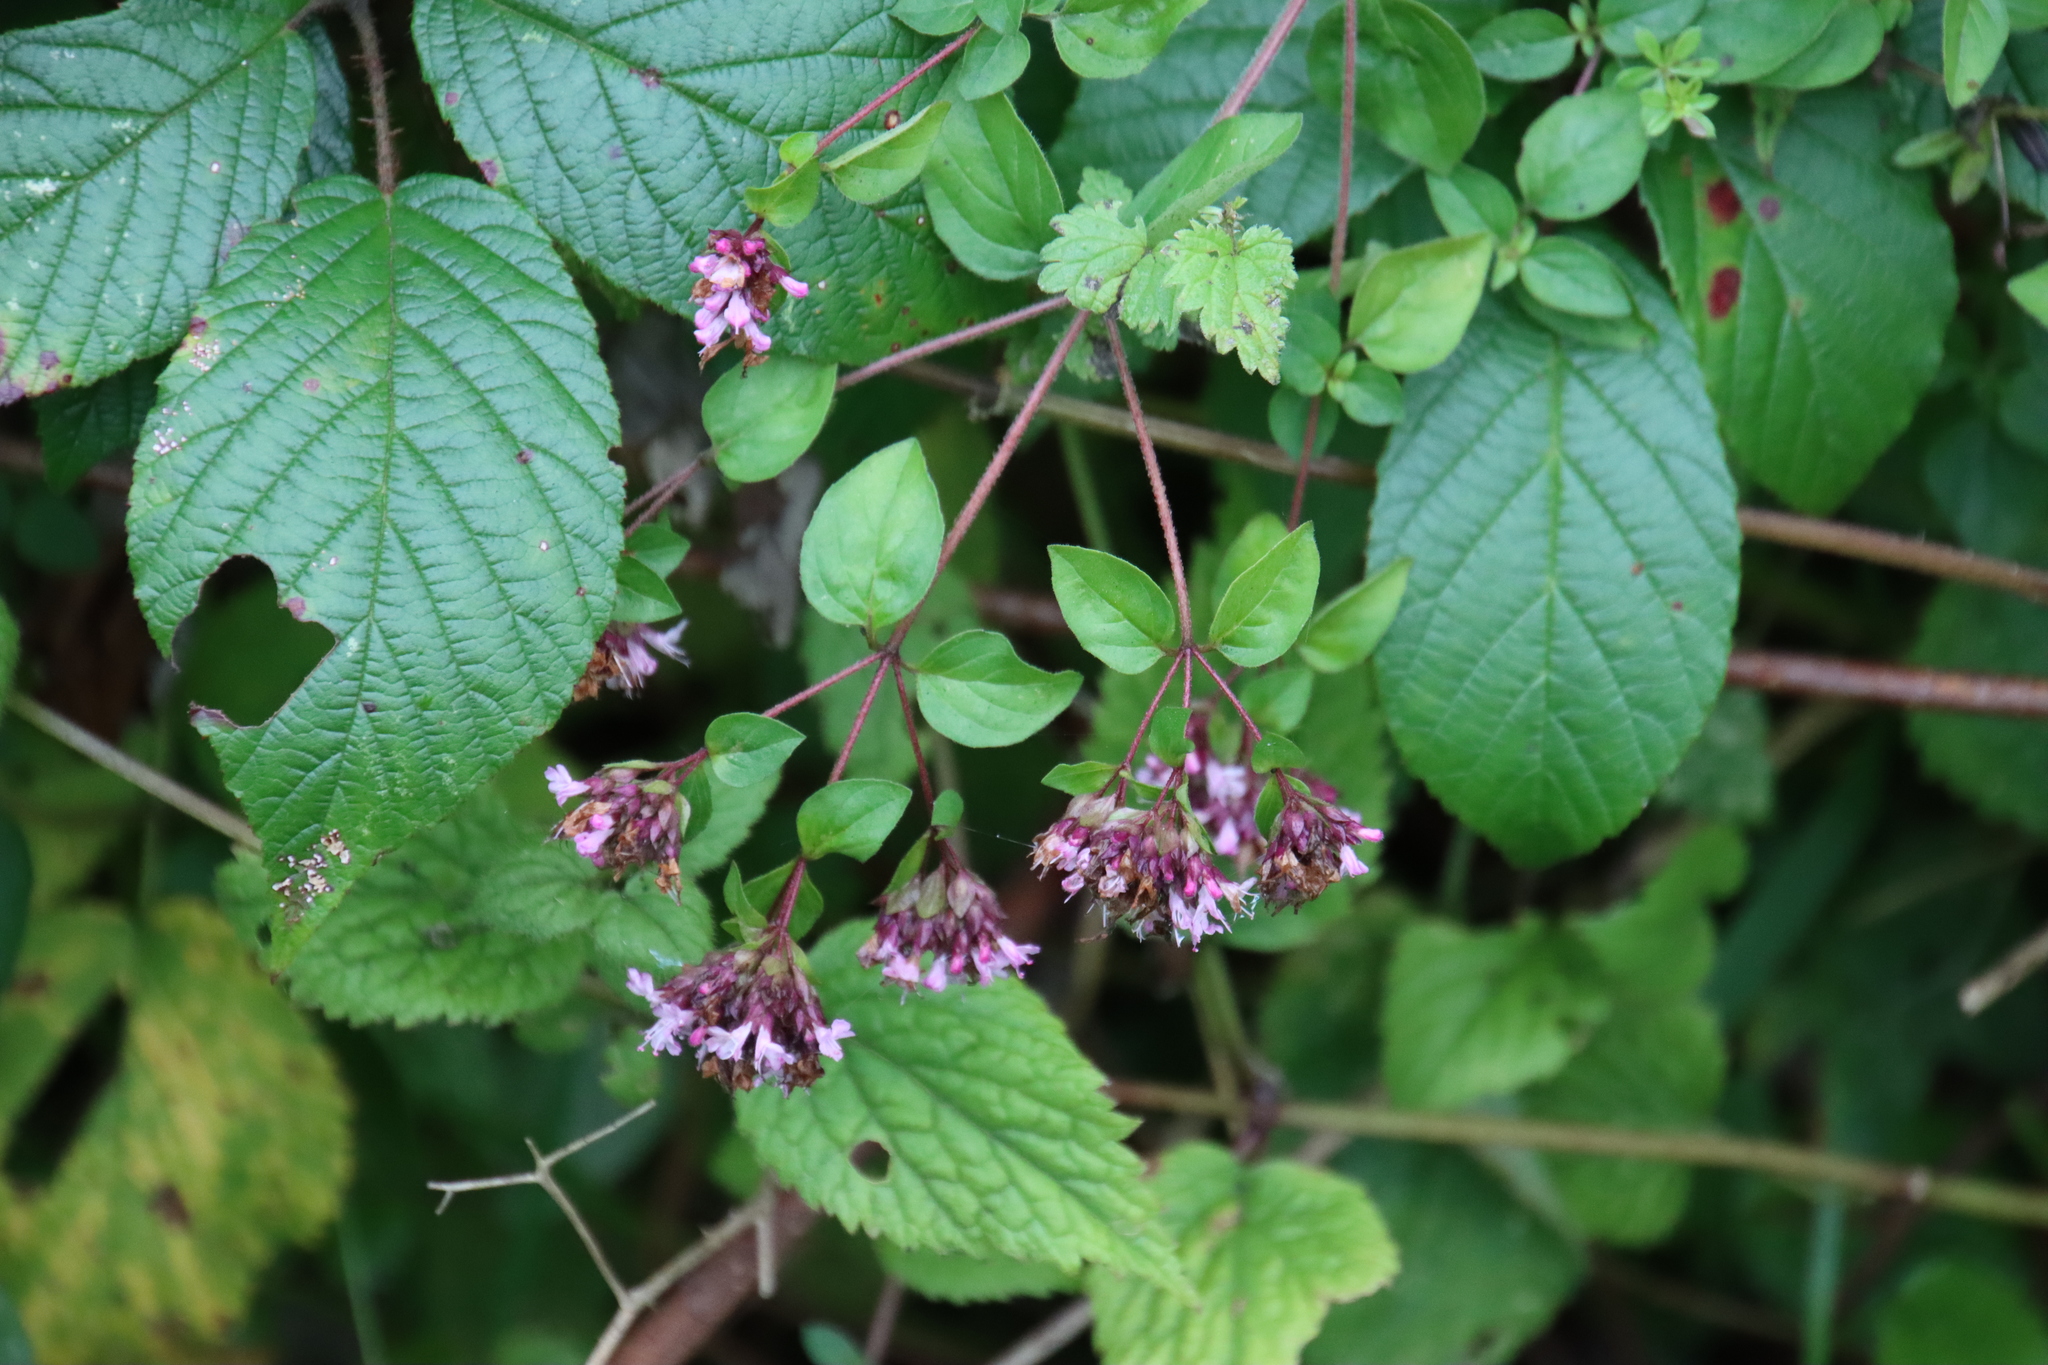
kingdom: Plantae
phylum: Tracheophyta
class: Magnoliopsida
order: Lamiales
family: Lamiaceae
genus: Origanum
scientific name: Origanum vulgare
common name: Wild marjoram
